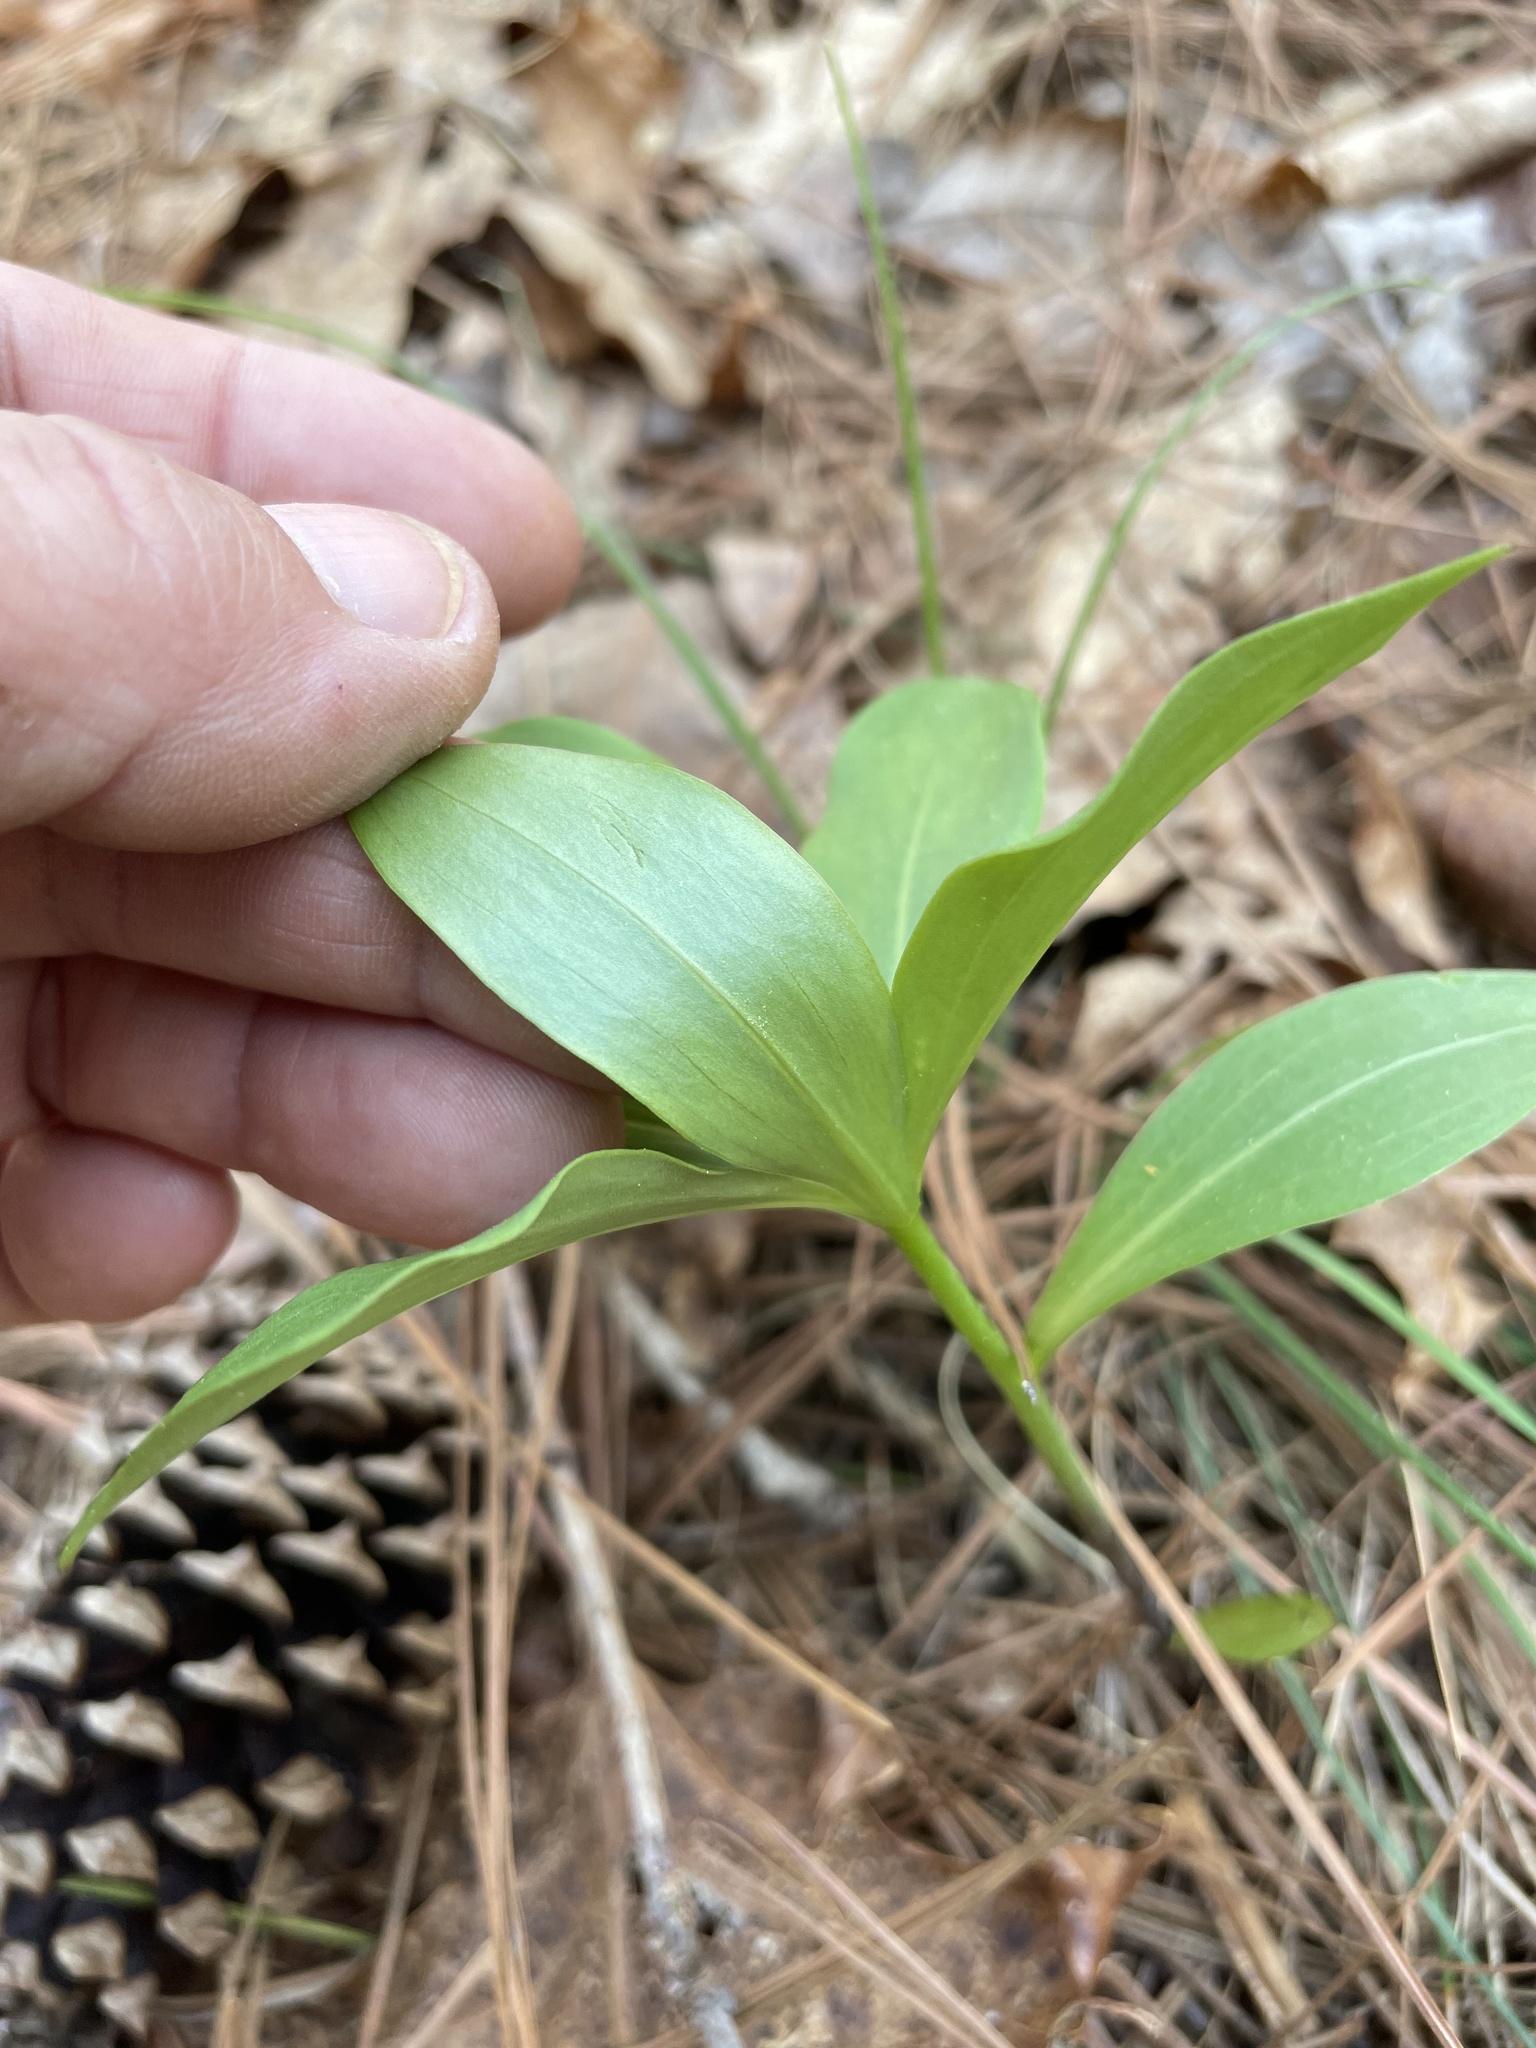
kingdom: Plantae
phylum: Tracheophyta
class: Liliopsida
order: Liliales
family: Liliaceae
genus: Lilium
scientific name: Lilium michauxii
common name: Carolina lily
